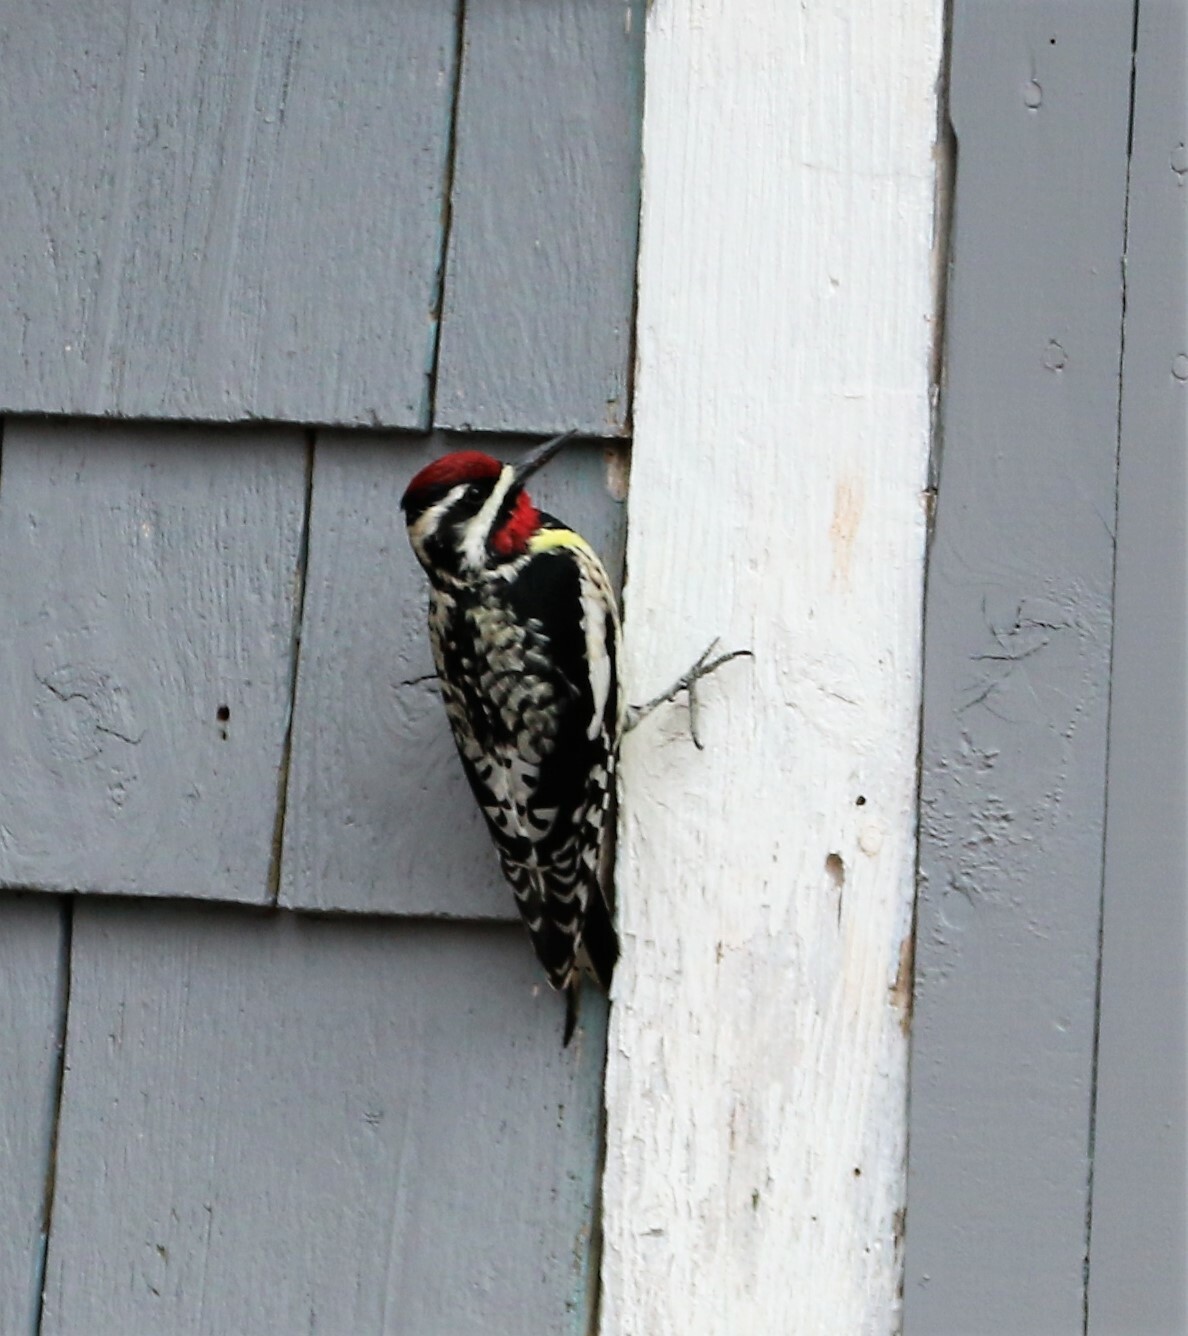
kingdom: Animalia
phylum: Chordata
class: Aves
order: Piciformes
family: Picidae
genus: Sphyrapicus
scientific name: Sphyrapicus varius
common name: Yellow-bellied sapsucker
